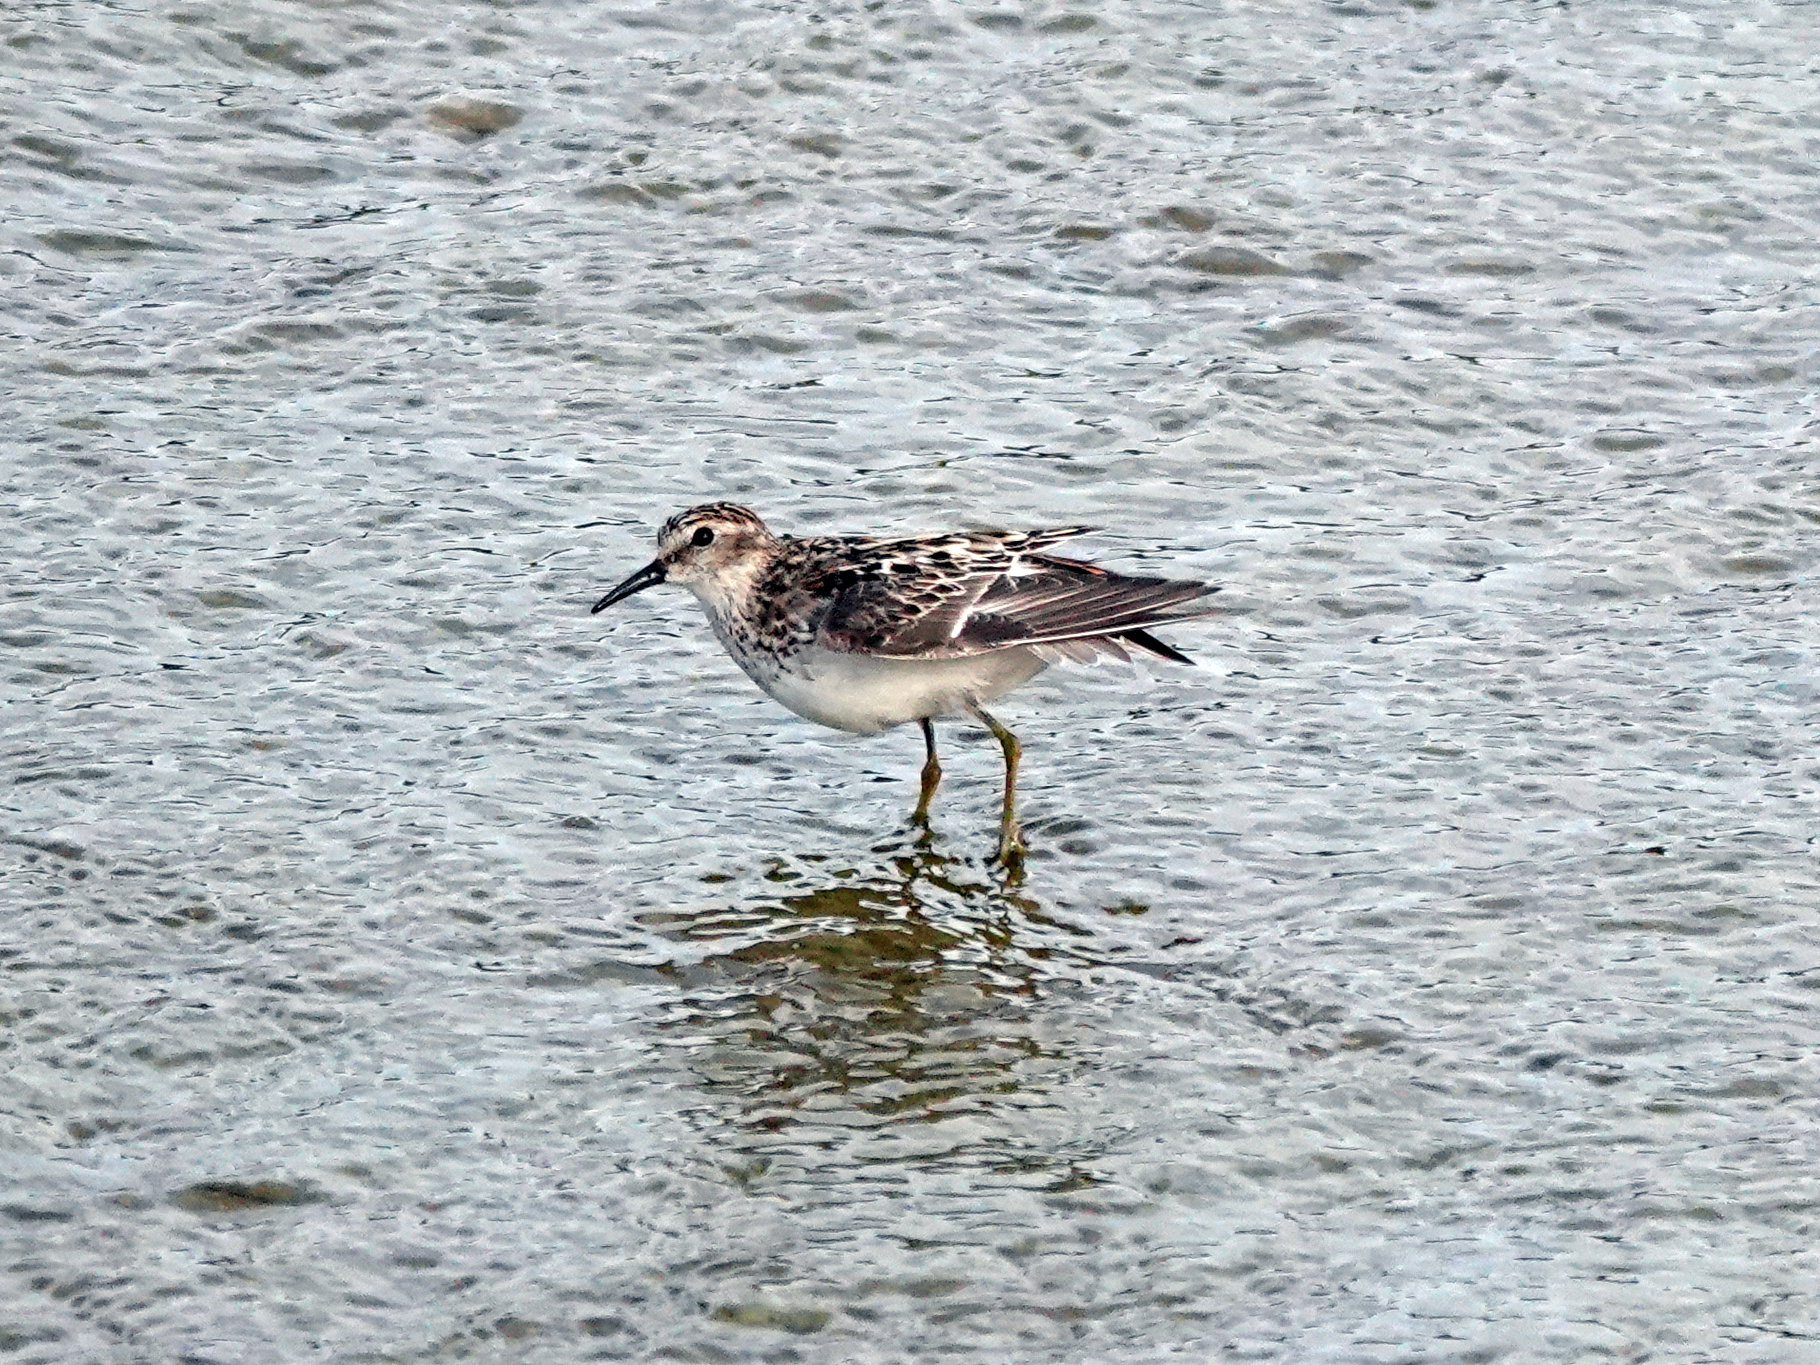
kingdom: Animalia
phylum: Chordata
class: Aves
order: Charadriiformes
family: Scolopacidae
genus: Calidris
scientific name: Calidris minutilla
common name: Least sandpiper
